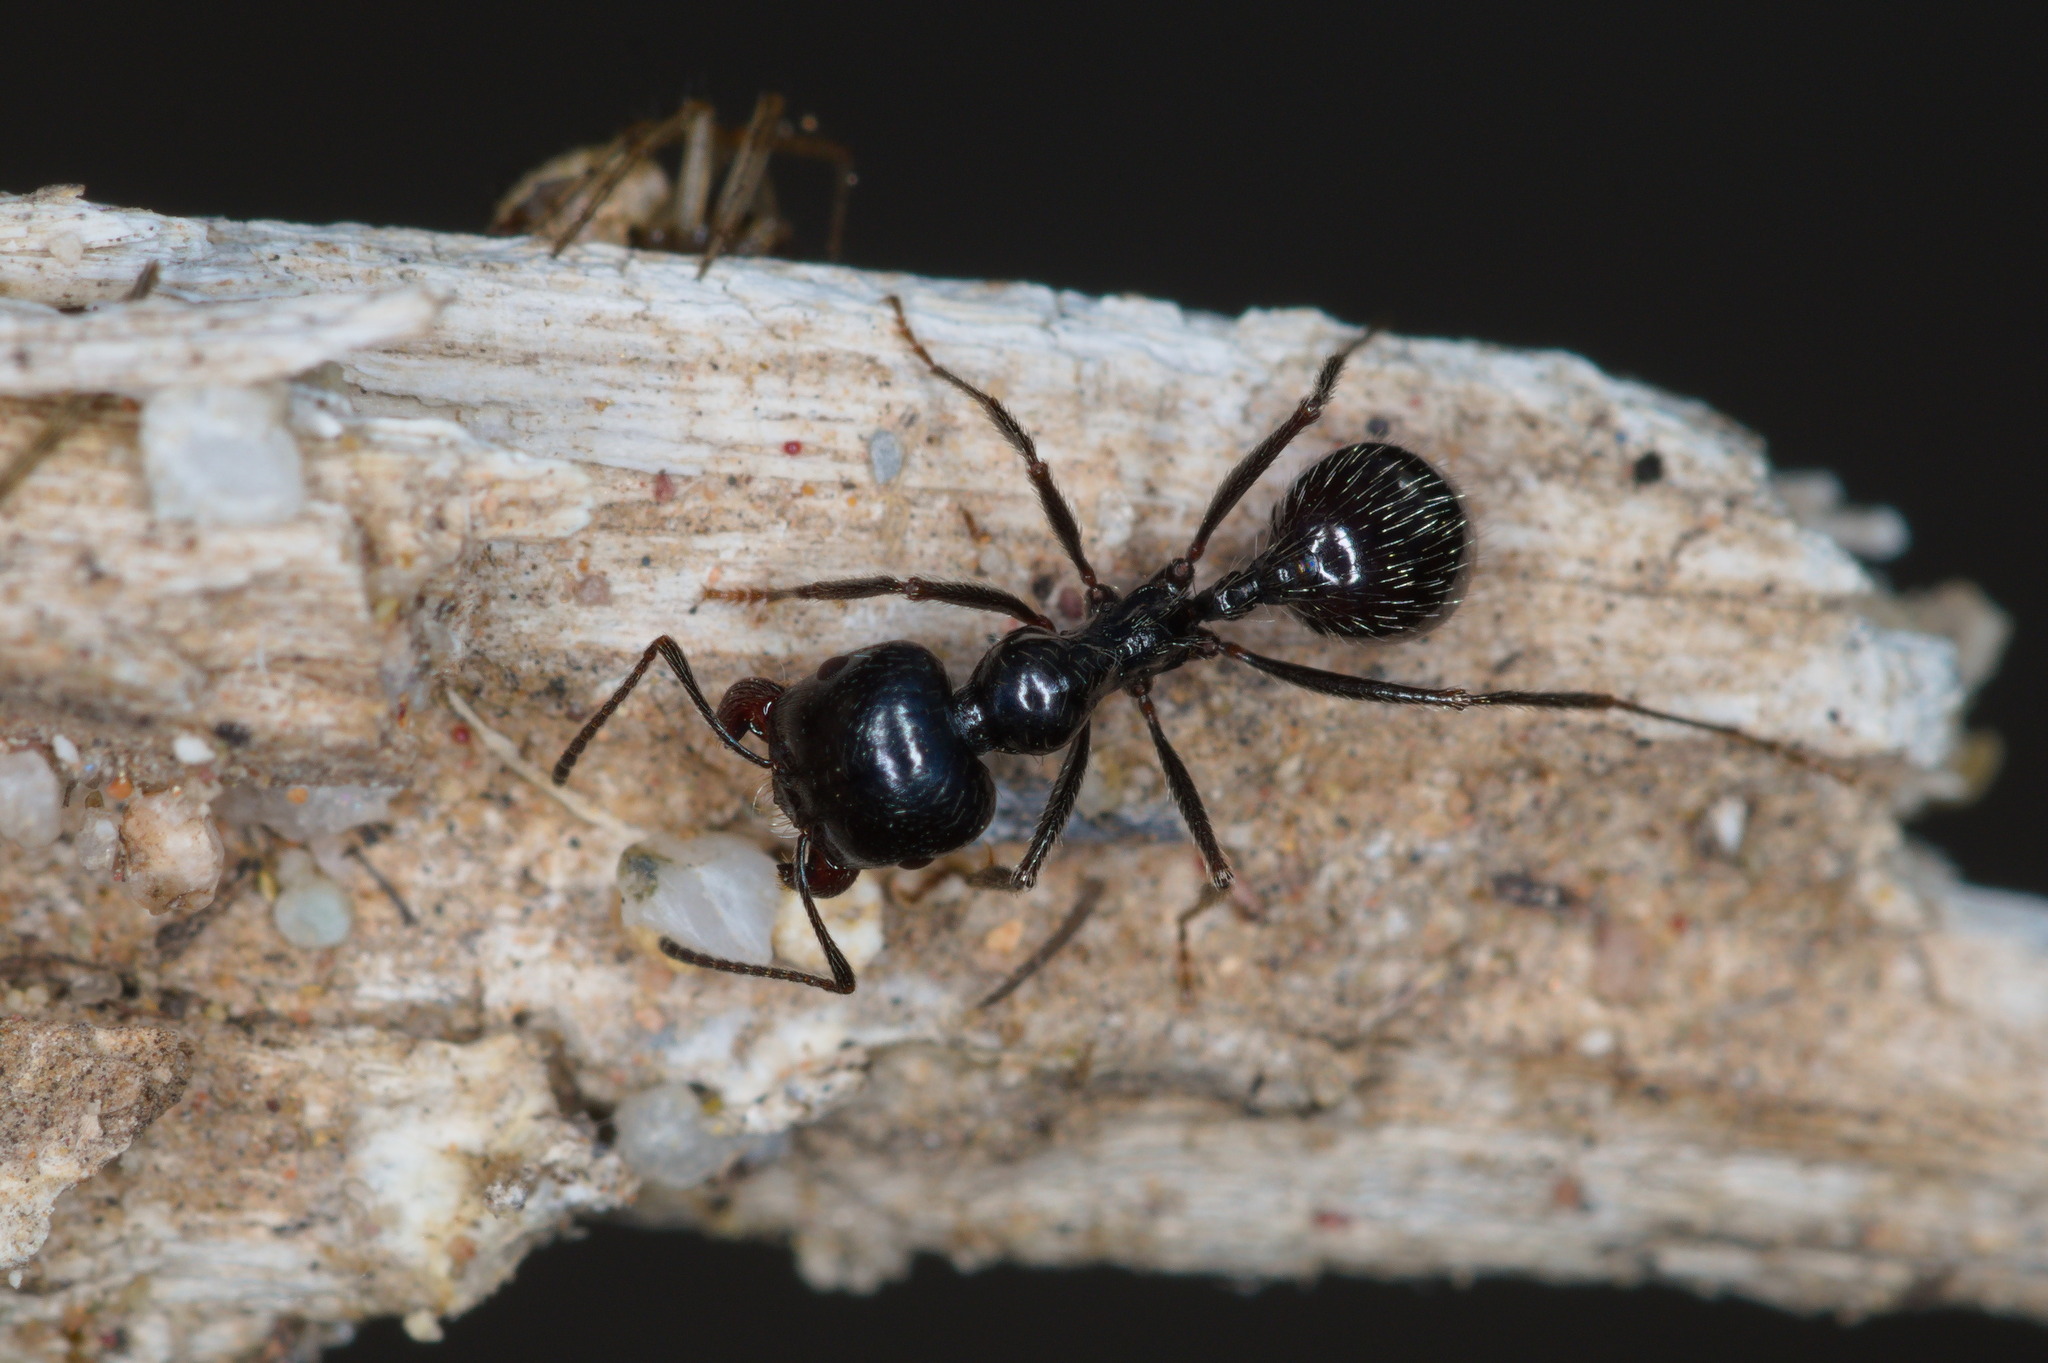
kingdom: Animalia
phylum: Arthropoda
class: Insecta
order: Hymenoptera
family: Formicidae
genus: Messor
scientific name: Messor pergandei
